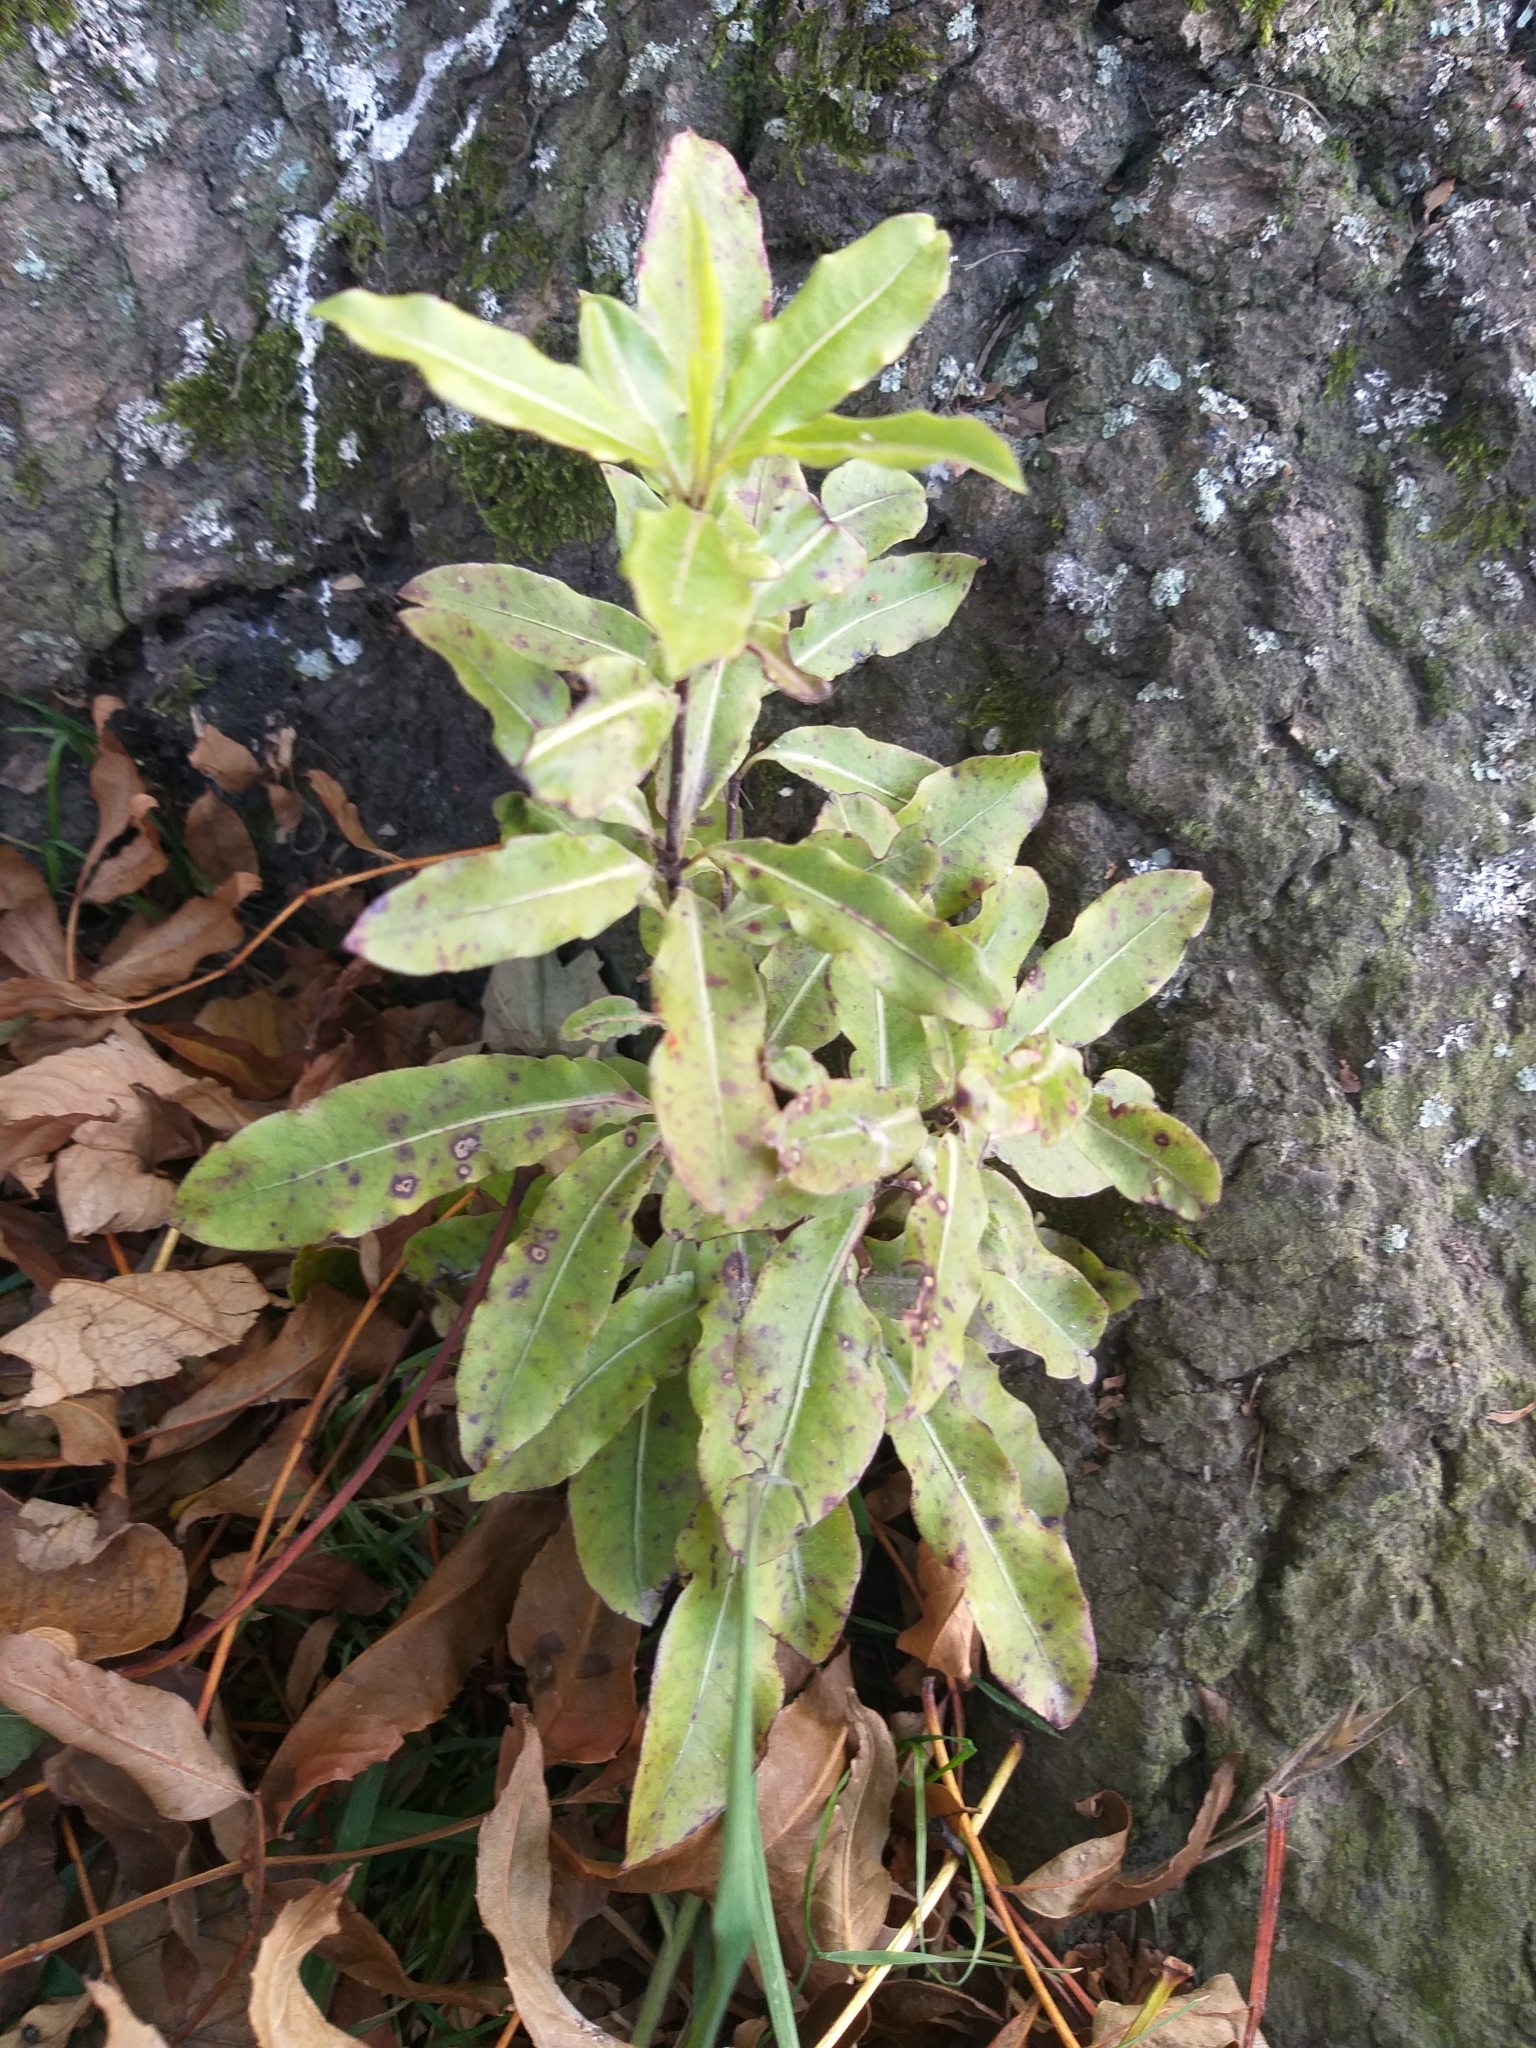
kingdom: Plantae
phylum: Tracheophyta
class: Magnoliopsida
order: Apiales
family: Pittosporaceae
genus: Pittosporum
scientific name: Pittosporum eugenioides
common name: Lemonwood
